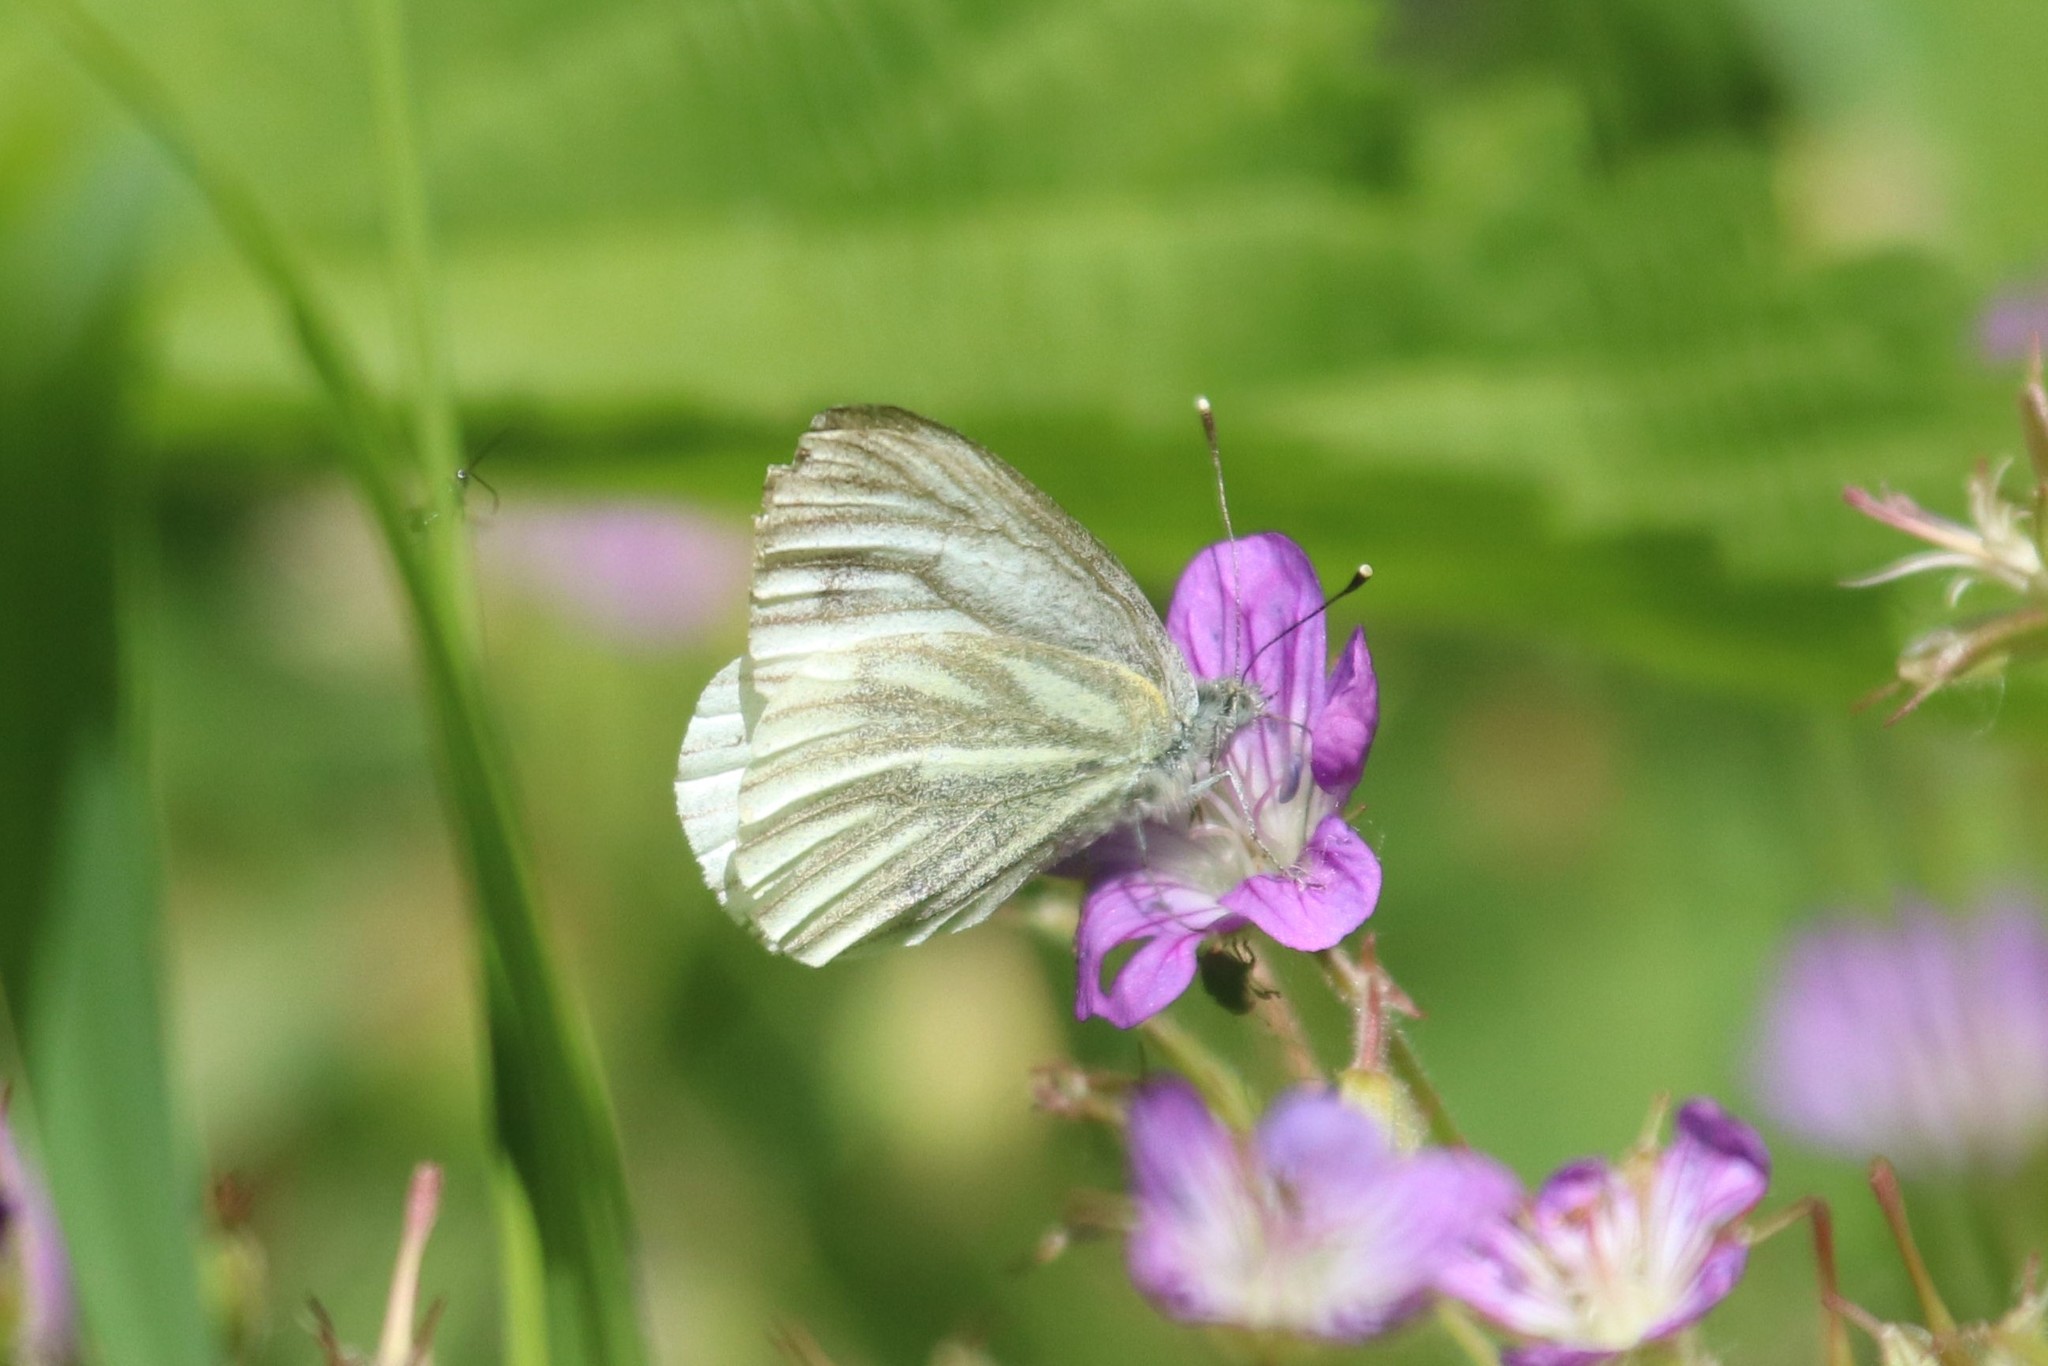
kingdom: Animalia
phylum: Arthropoda
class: Insecta
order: Lepidoptera
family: Pieridae
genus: Pieris
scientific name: Pieris napi
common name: Green-veined white
